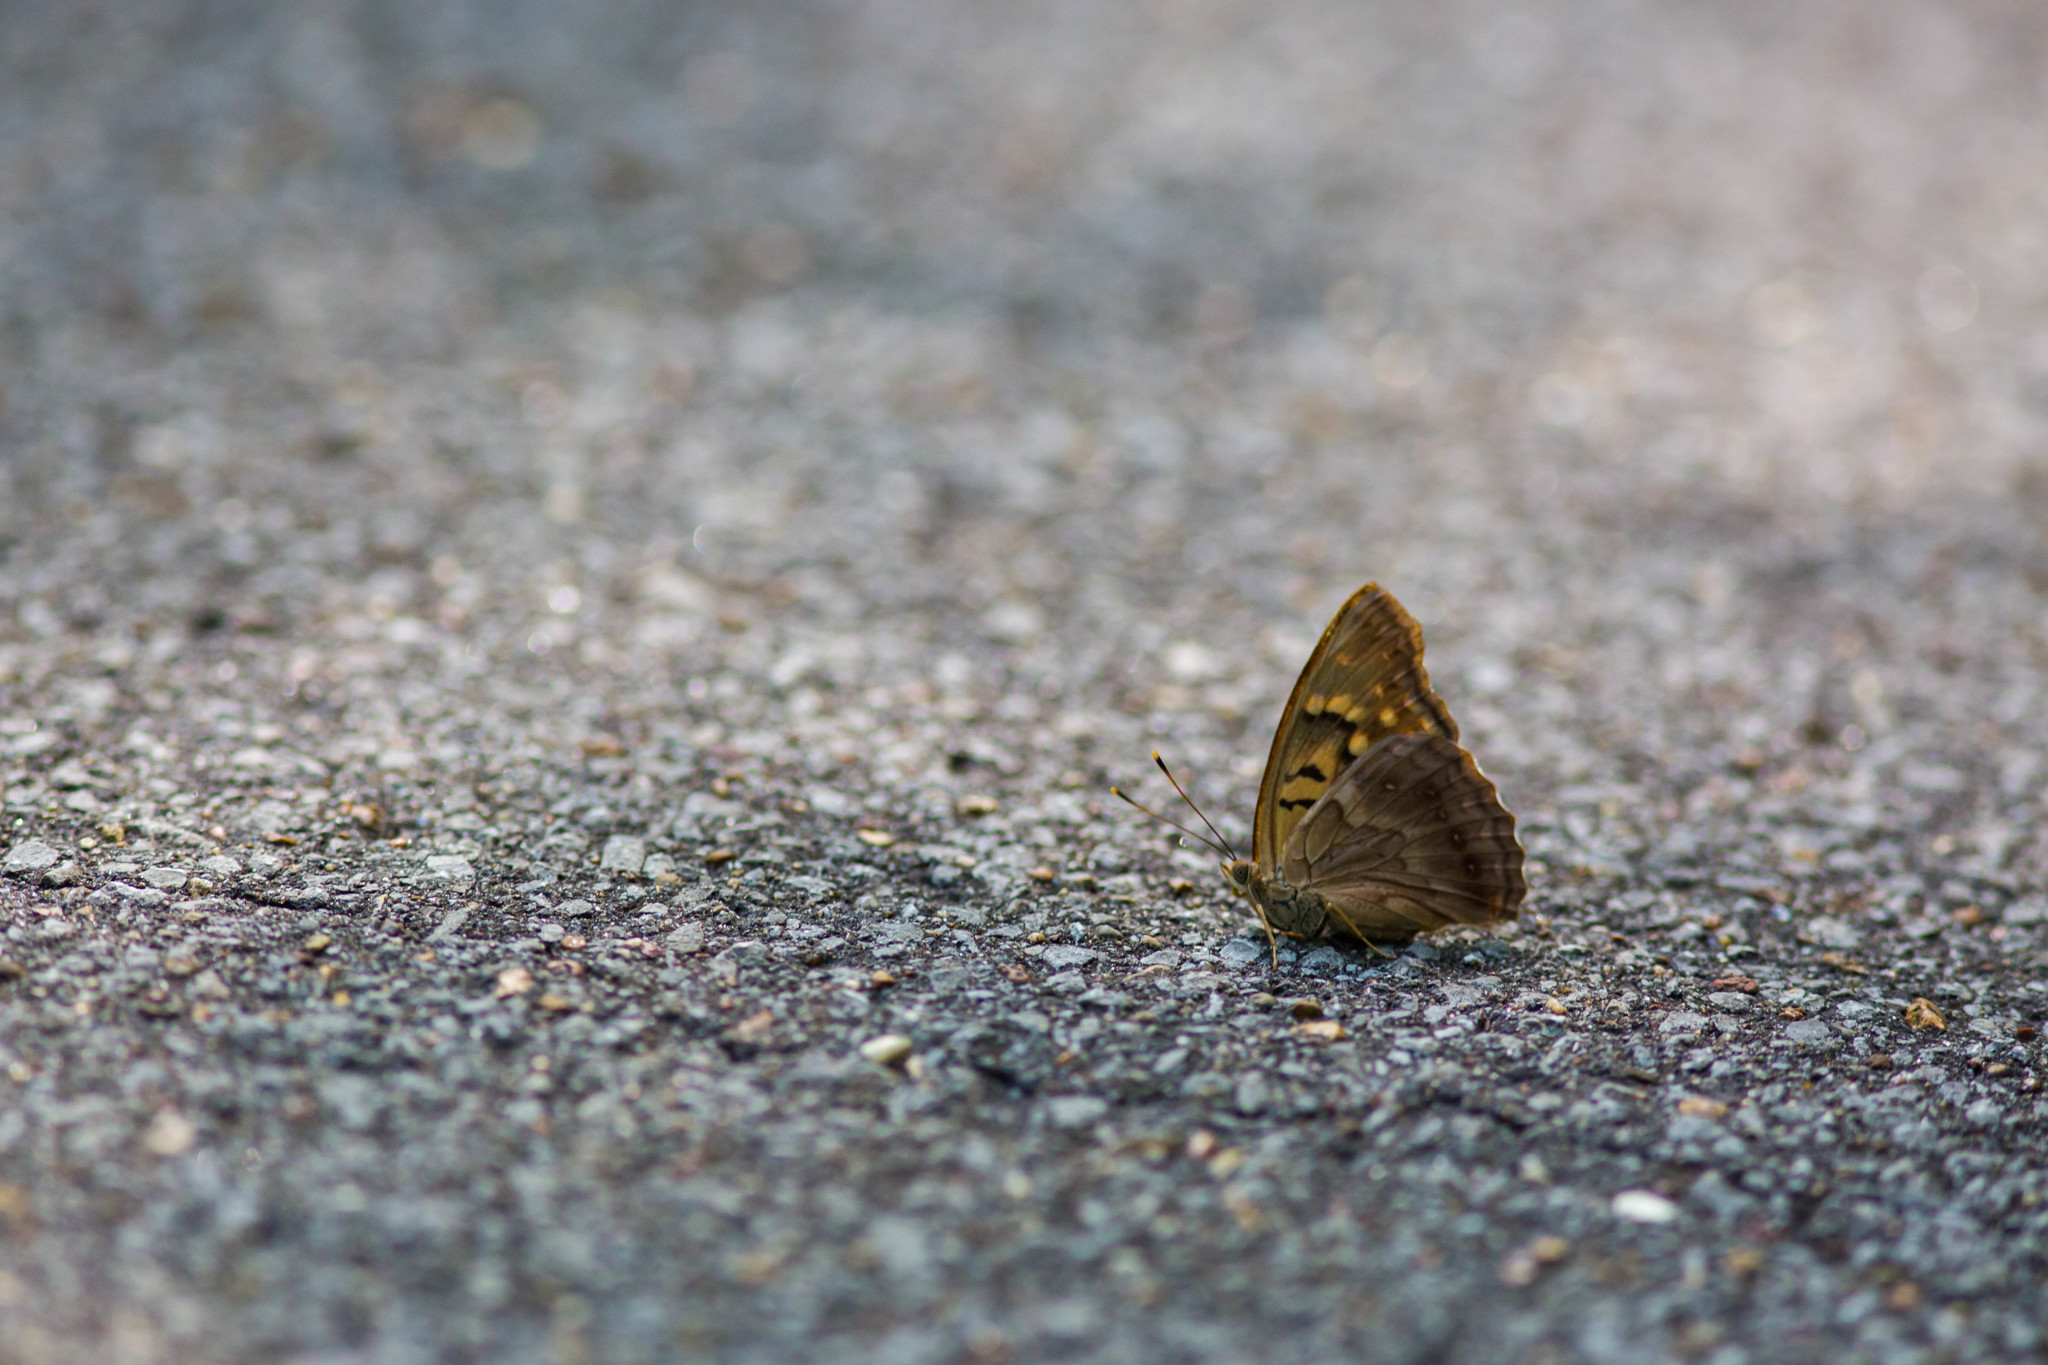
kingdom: Animalia
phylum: Arthropoda
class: Insecta
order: Lepidoptera
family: Nymphalidae
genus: Asterocampa
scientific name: Asterocampa clyton
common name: Tawny emperor
